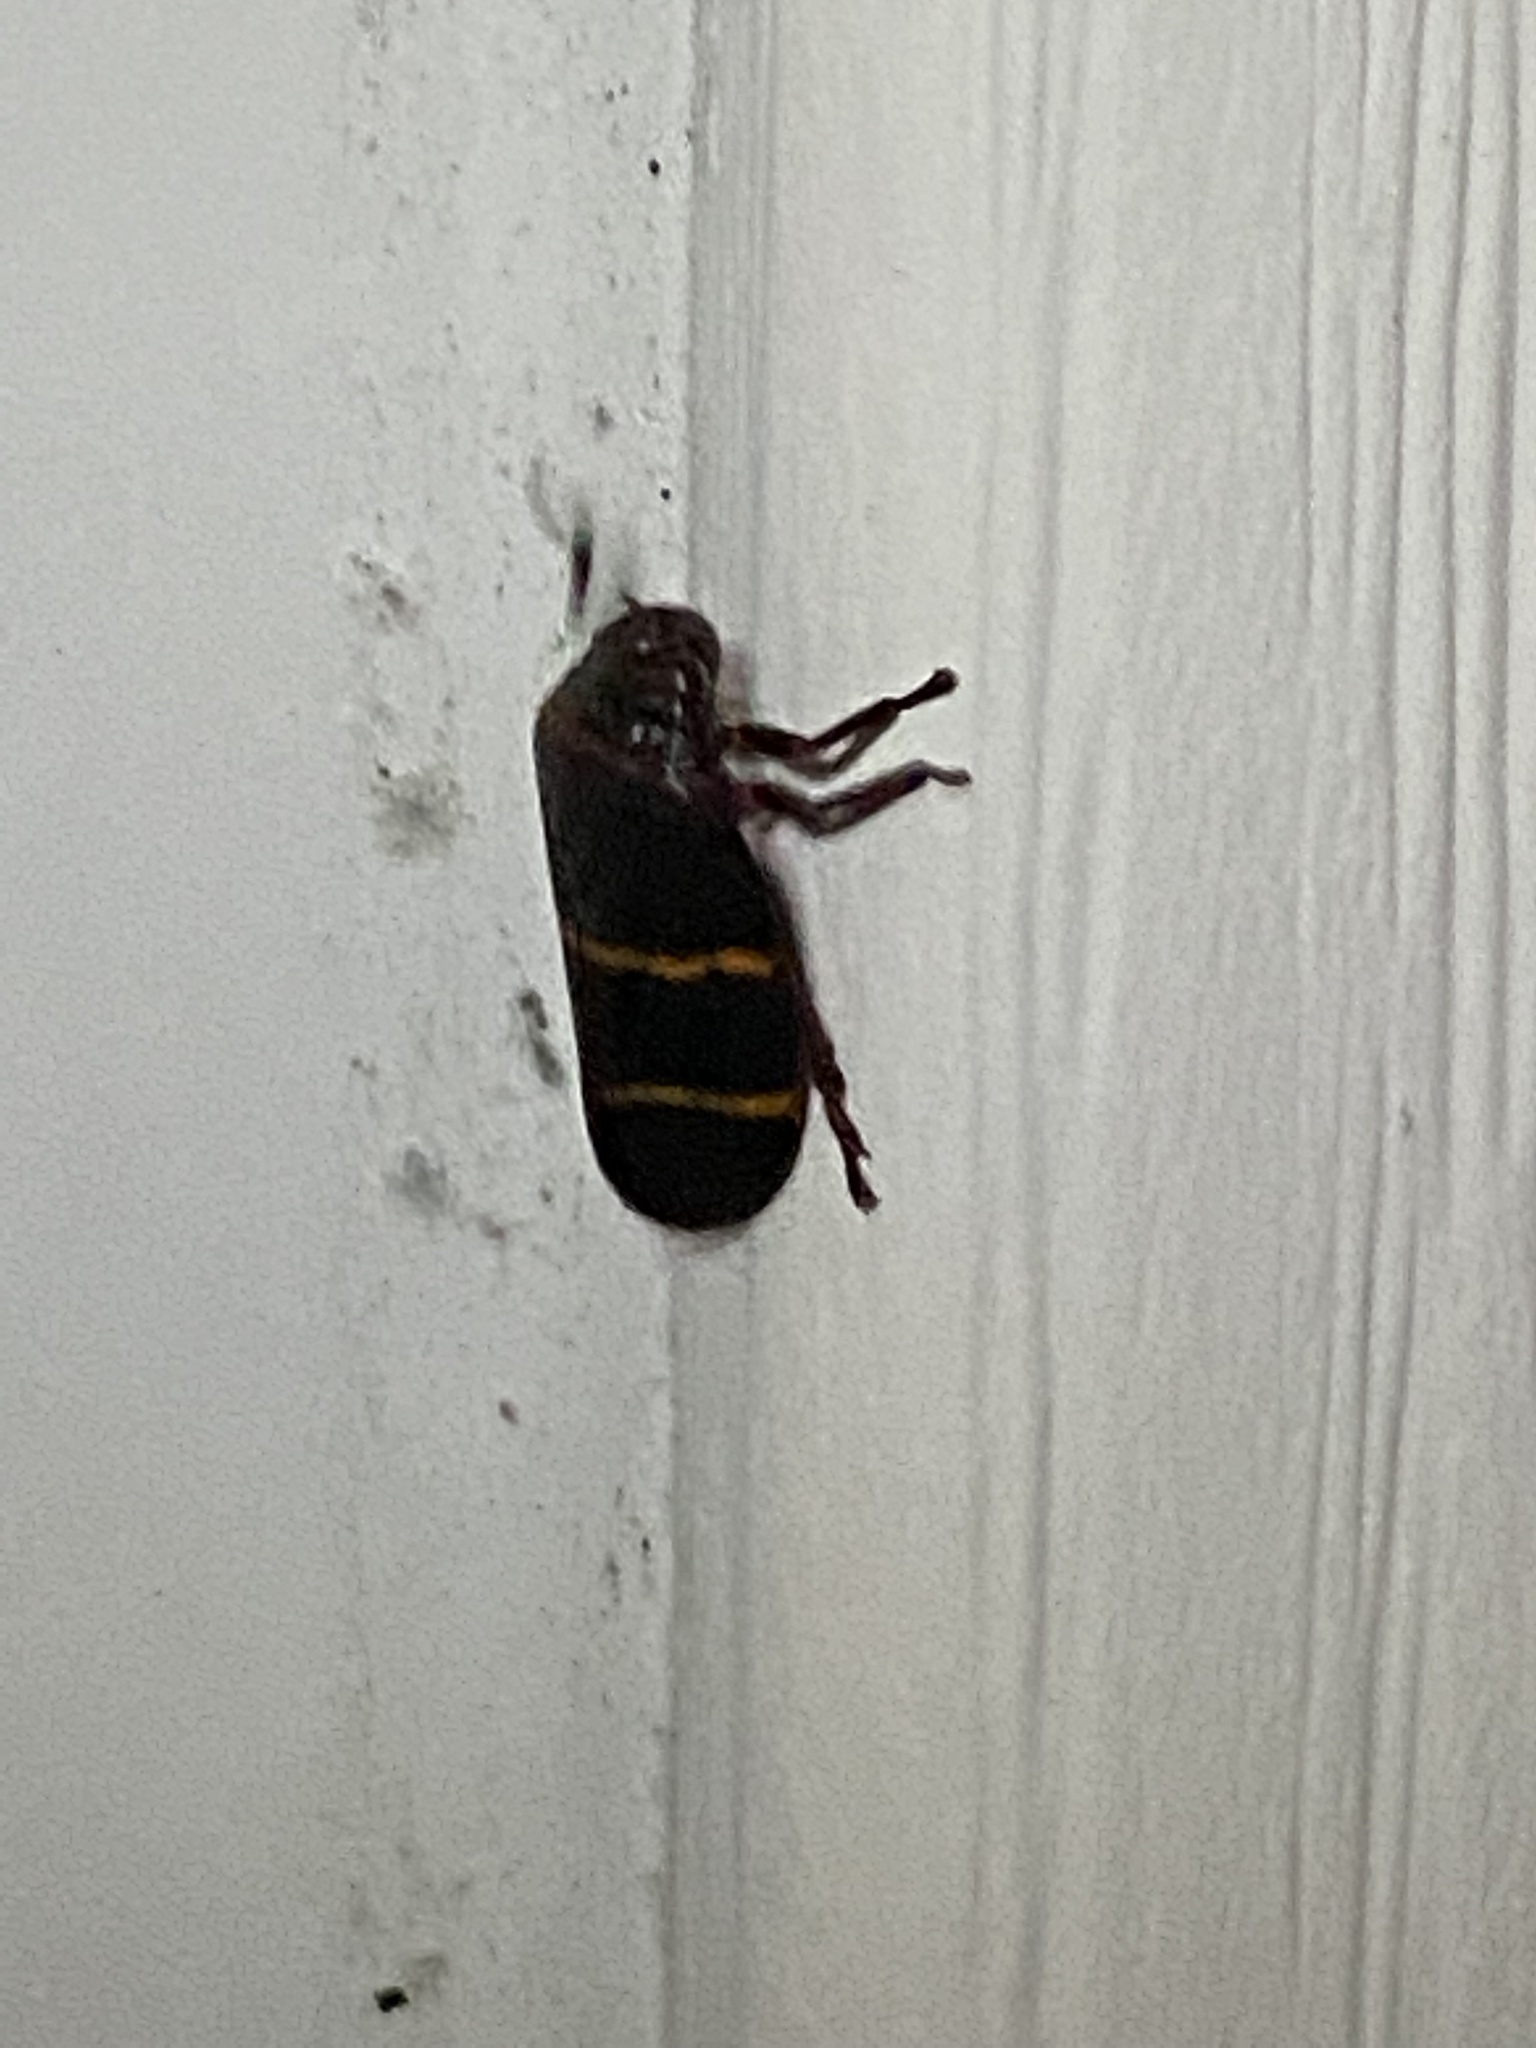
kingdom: Animalia
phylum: Arthropoda
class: Insecta
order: Hemiptera
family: Cercopidae
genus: Prosapia
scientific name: Prosapia bicincta
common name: Twolined spittlebug
